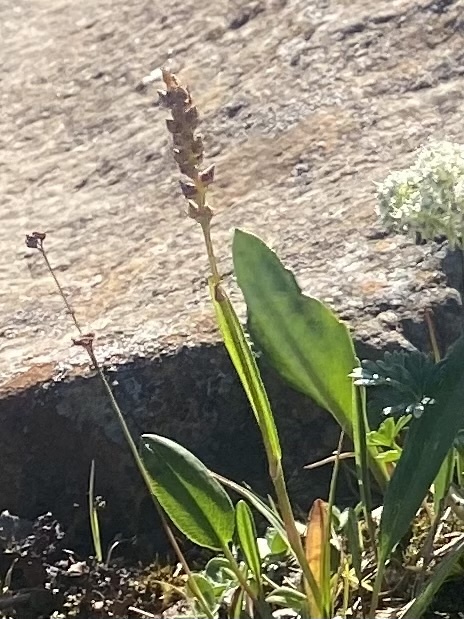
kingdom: Plantae
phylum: Tracheophyta
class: Magnoliopsida
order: Caryophyllales
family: Polygonaceae
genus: Bistorta
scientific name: Bistorta vivipara
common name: Alpine bistort
